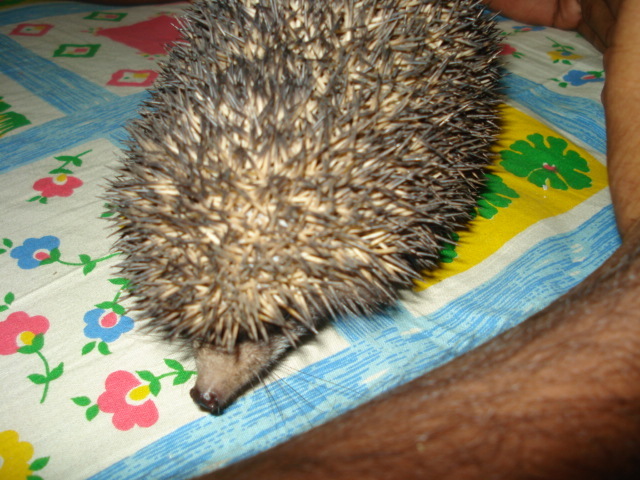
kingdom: Animalia
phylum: Chordata
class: Mammalia
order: Erinaceomorpha
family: Erinaceidae
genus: Paraechinus
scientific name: Paraechinus micropus
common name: Indian hedgehog
